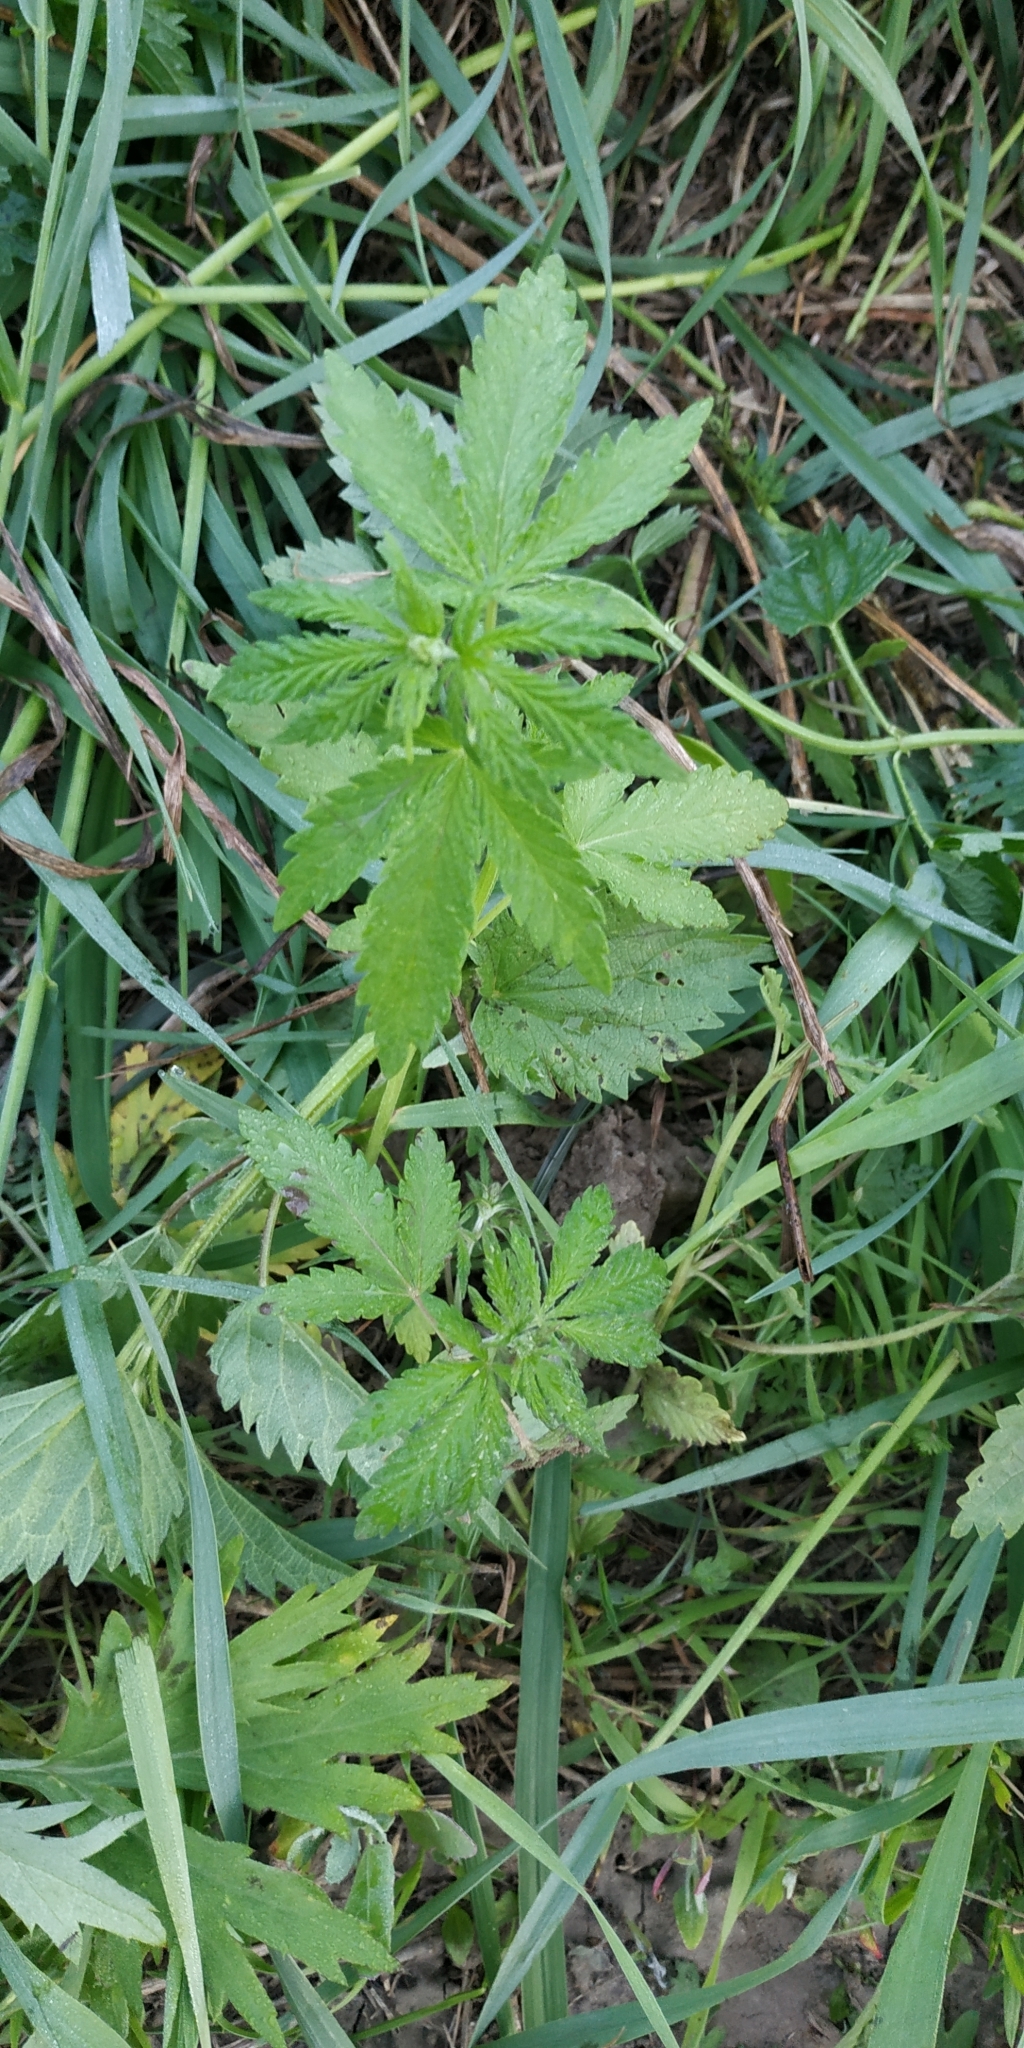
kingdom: Plantae
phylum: Tracheophyta
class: Magnoliopsida
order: Rosales
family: Cannabaceae
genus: Cannabis
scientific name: Cannabis sativa
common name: Hemp
